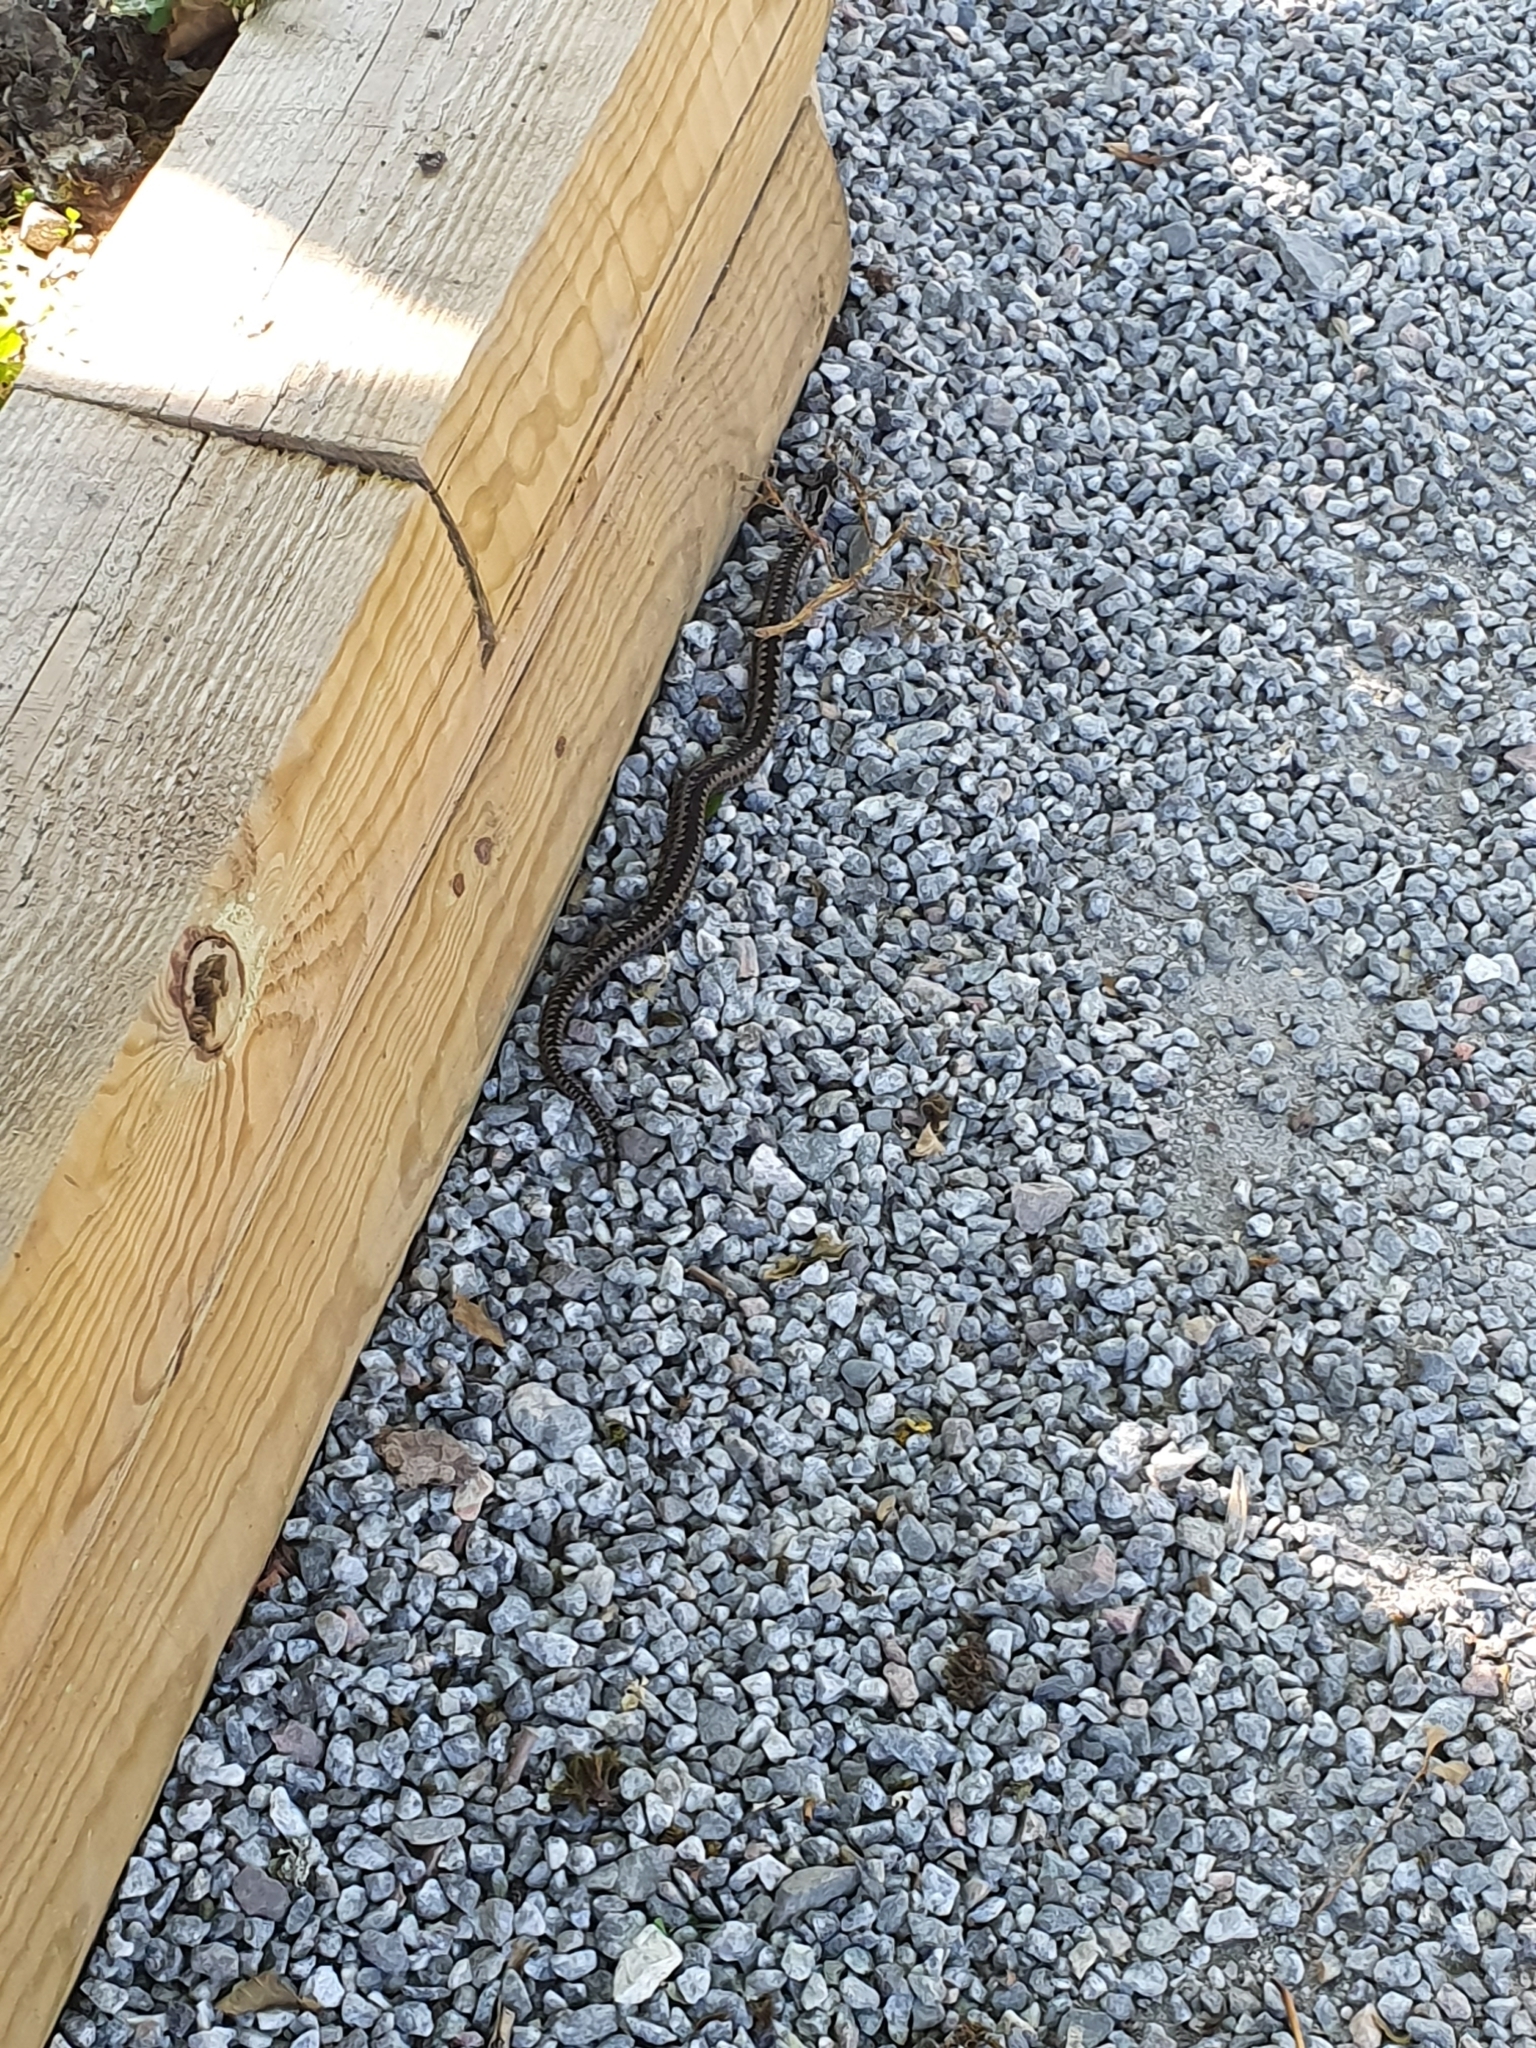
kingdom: Animalia
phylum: Chordata
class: Squamata
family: Viperidae
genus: Vipera
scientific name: Vipera berus
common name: Adder
